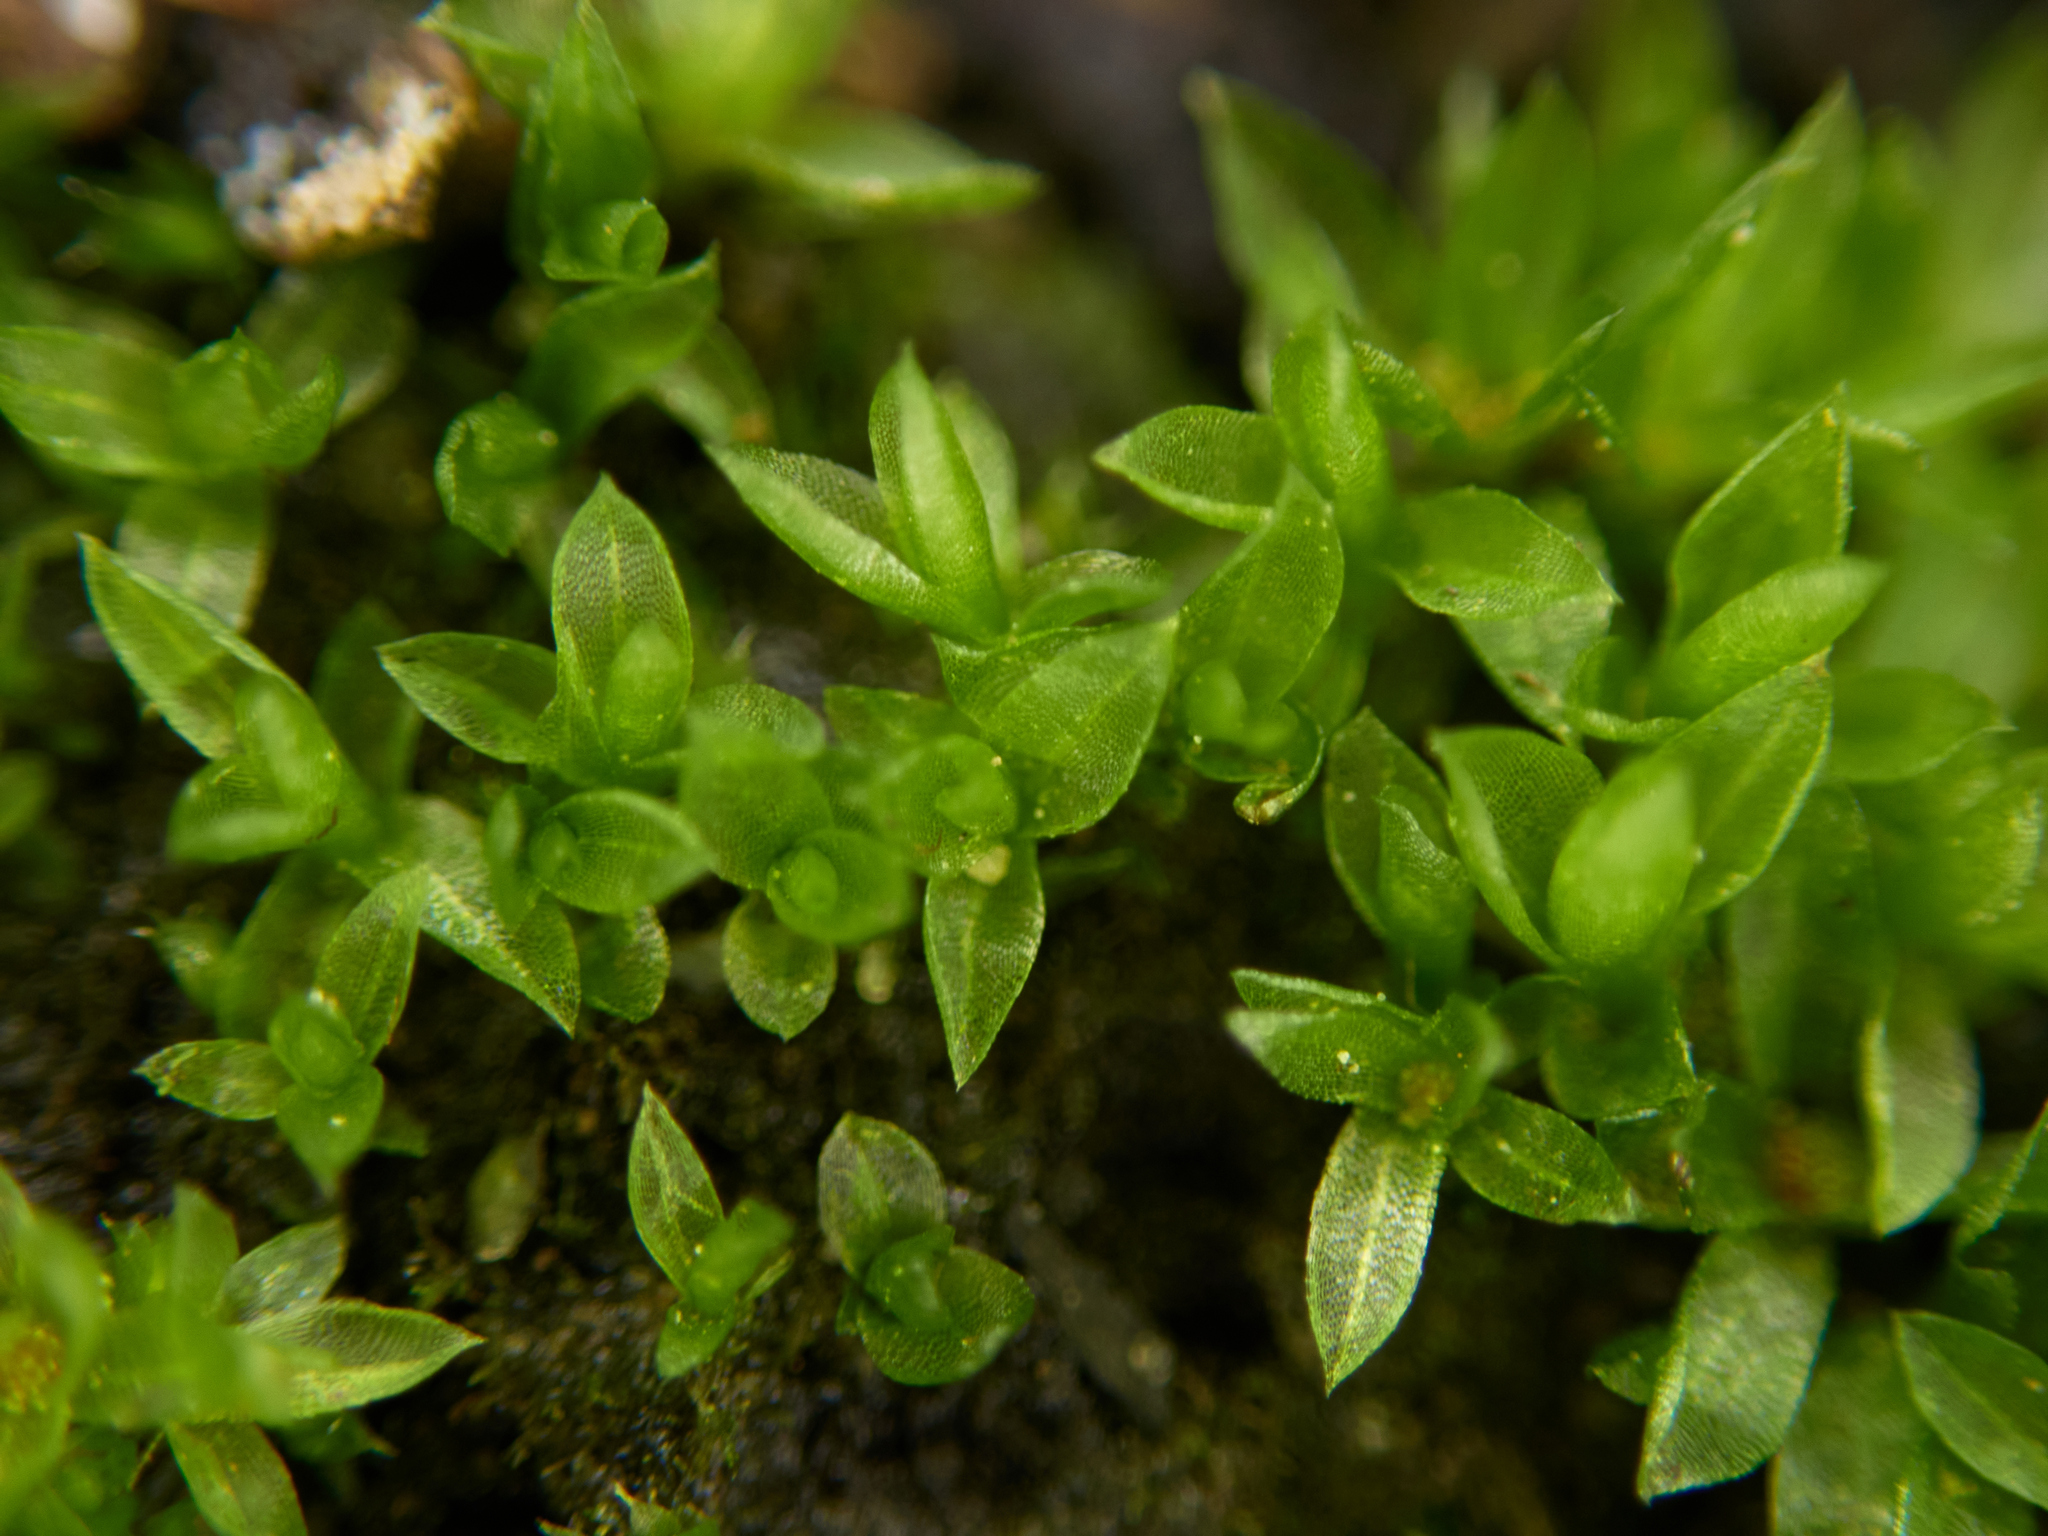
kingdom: Plantae
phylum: Bryophyta
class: Bryopsida
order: Funariales
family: Funariaceae
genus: Funaria
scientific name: Funaria hygrometrica
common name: Common cord moss
